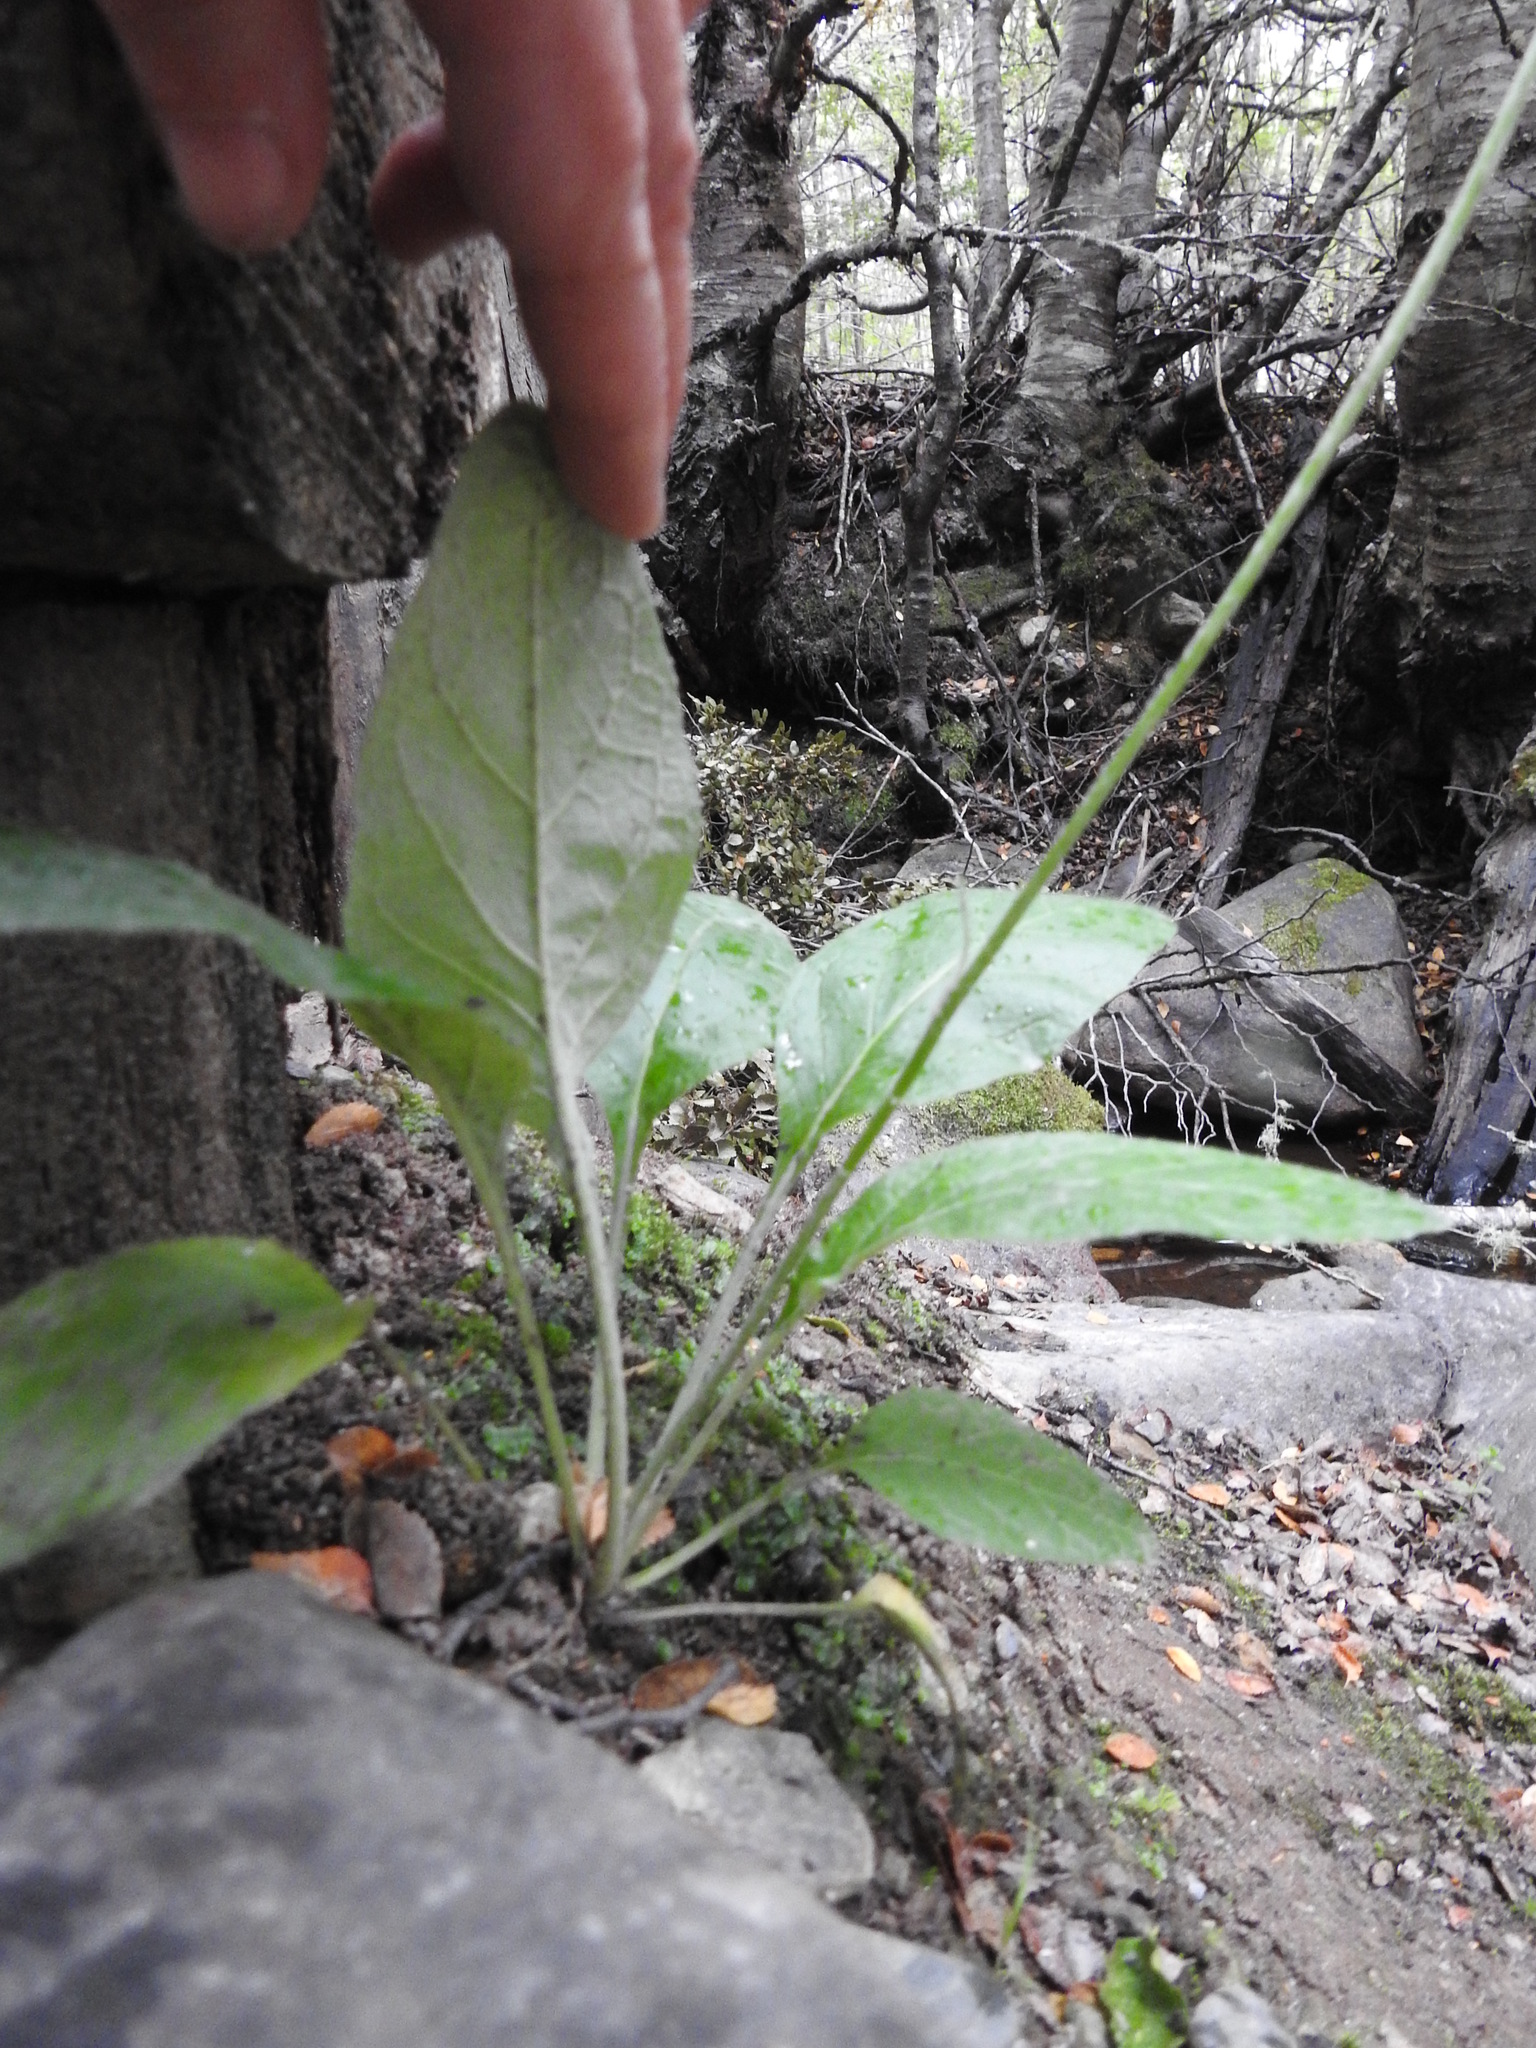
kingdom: Plantae
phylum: Tracheophyta
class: Magnoliopsida
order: Asterales
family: Asteraceae
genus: Adenocaulon
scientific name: Adenocaulon chilense
